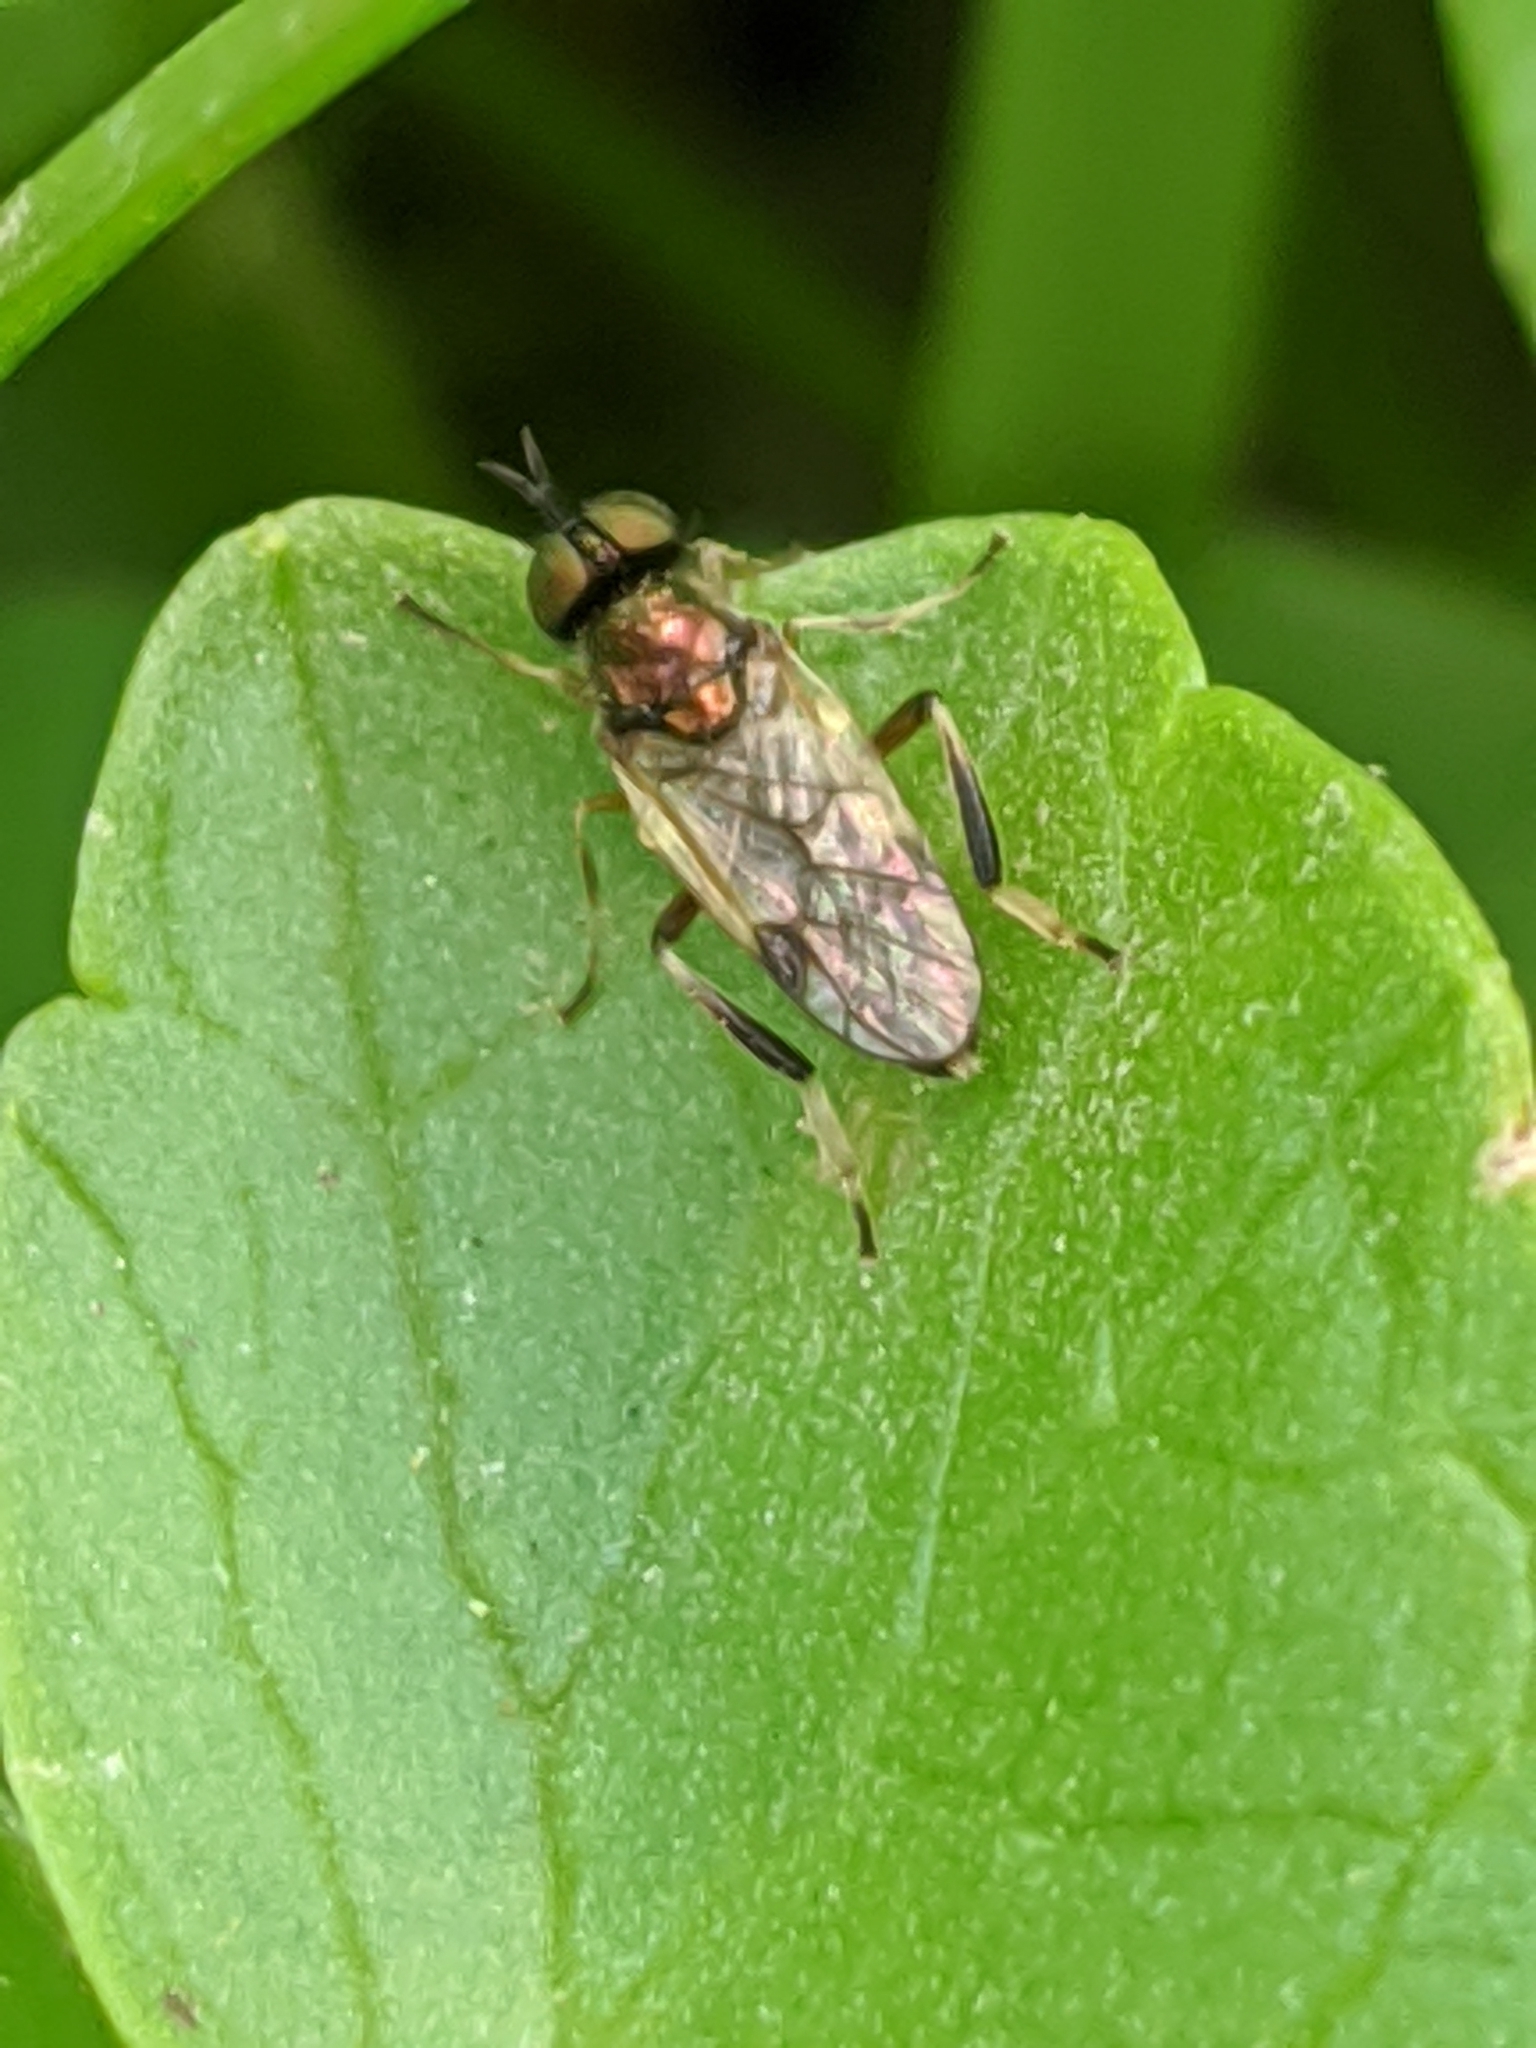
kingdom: Animalia
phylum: Arthropoda
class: Insecta
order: Diptera
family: Stratiomyidae
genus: Actina
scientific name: Actina viridis
